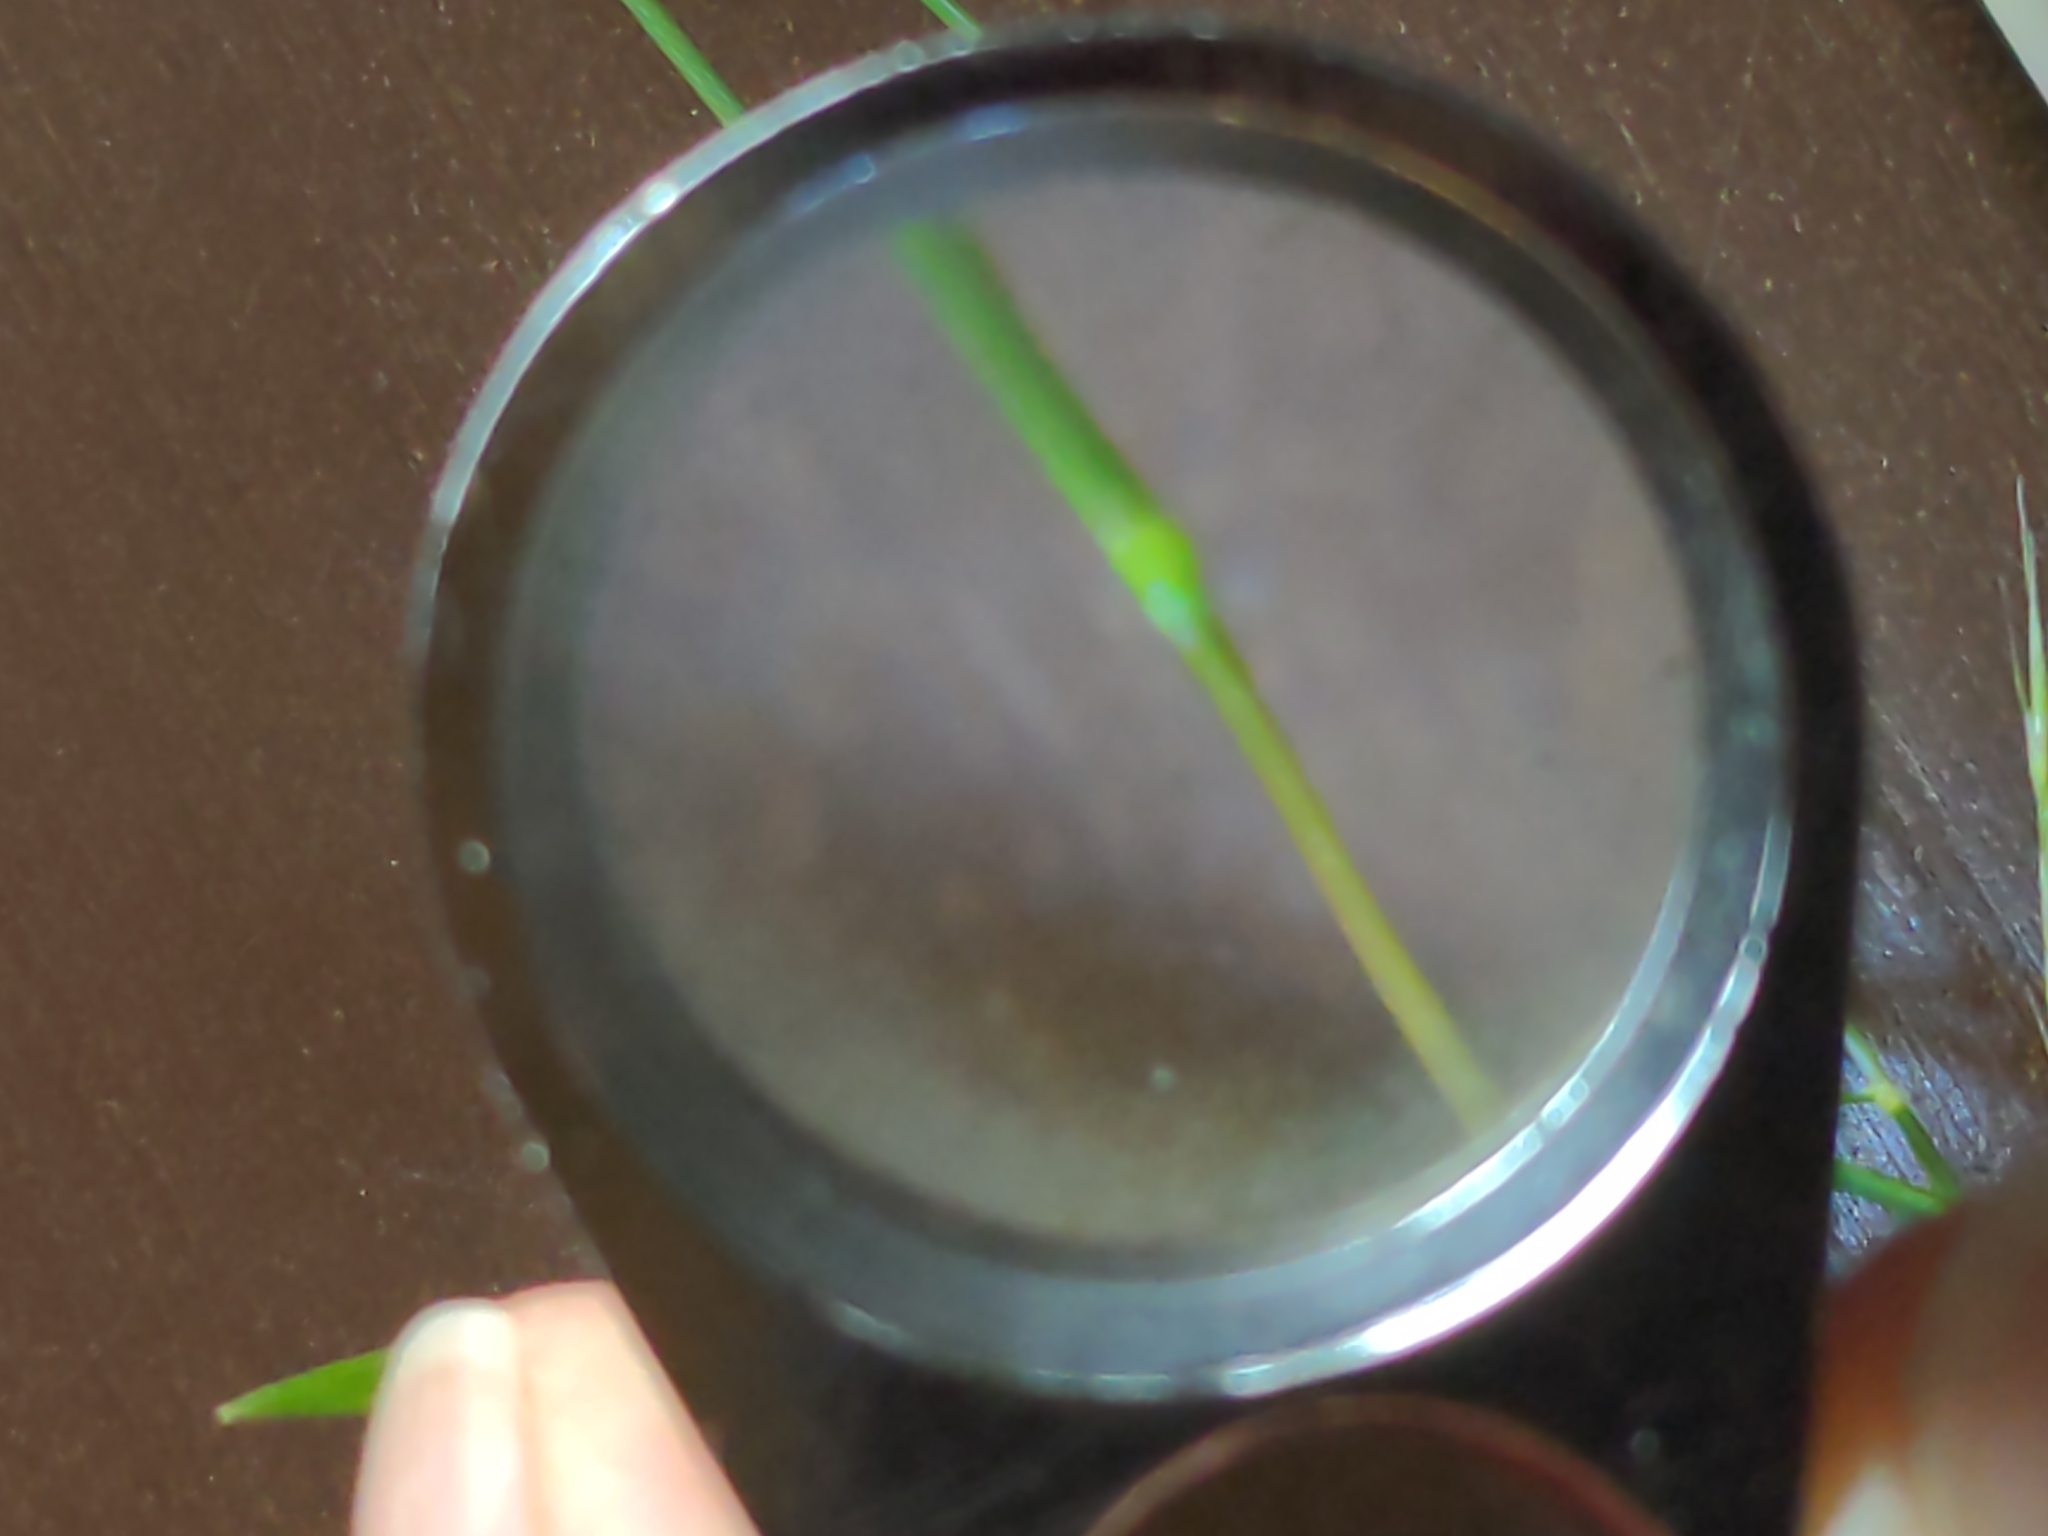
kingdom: Plantae
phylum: Tracheophyta
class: Liliopsida
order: Poales
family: Poaceae
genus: Muhlenbergia
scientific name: Muhlenbergia schreberi
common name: Nimblewill
